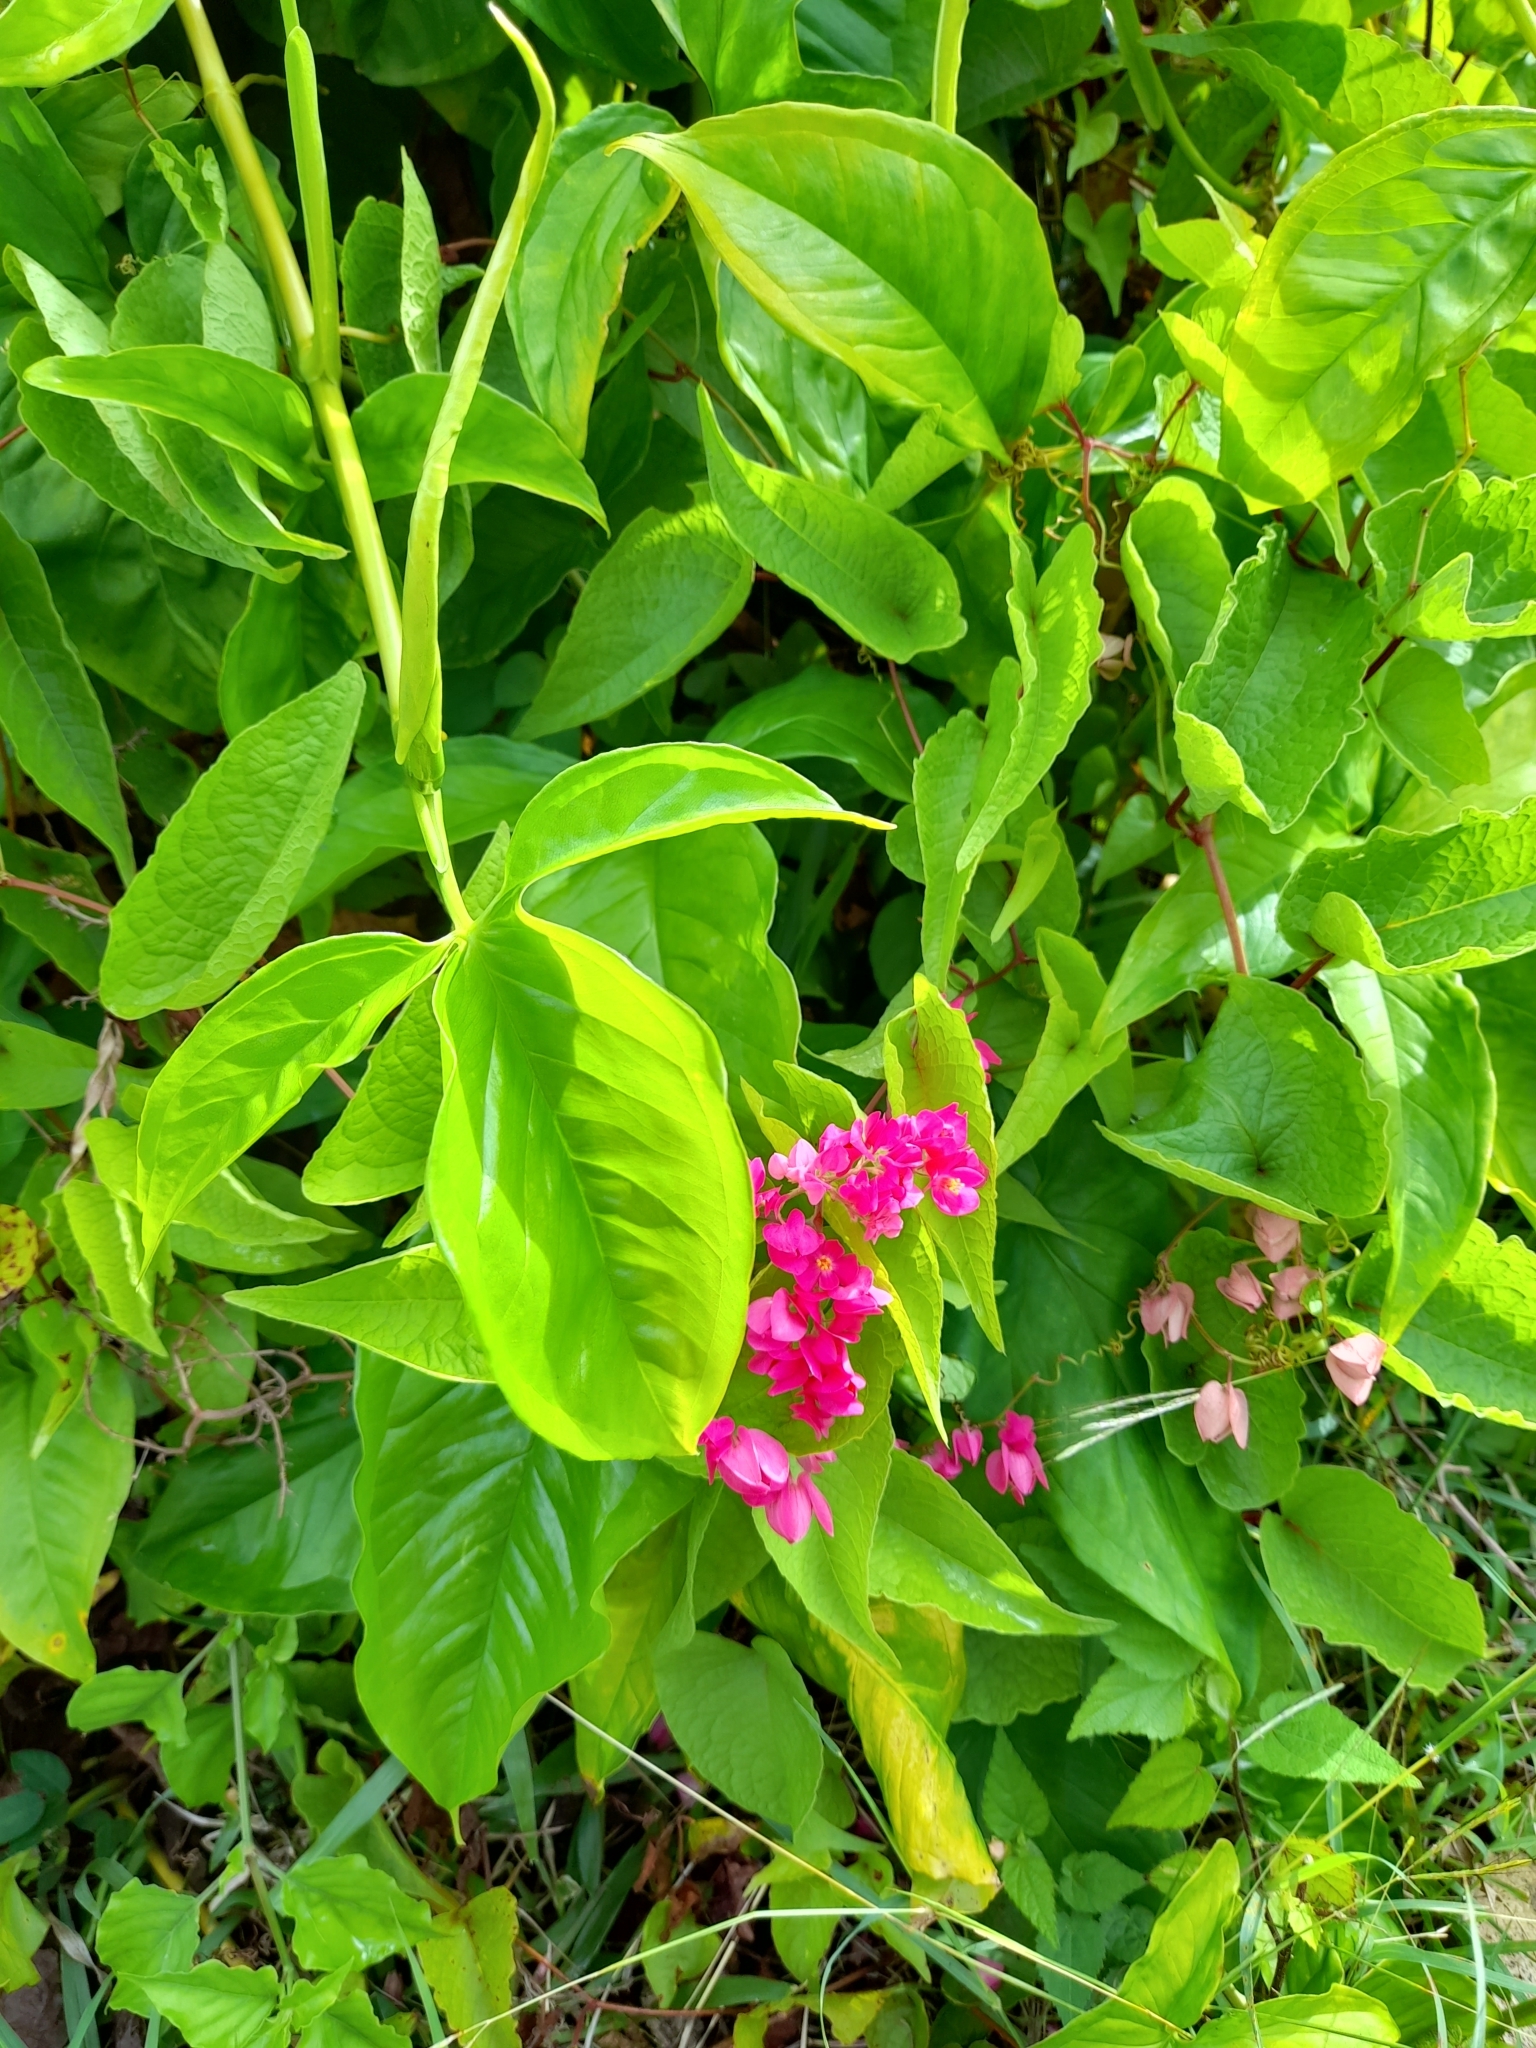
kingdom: Plantae
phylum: Tracheophyta
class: Magnoliopsida
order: Caryophyllales
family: Polygonaceae
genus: Antigonon
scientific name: Antigonon leptopus
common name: Coral vine
